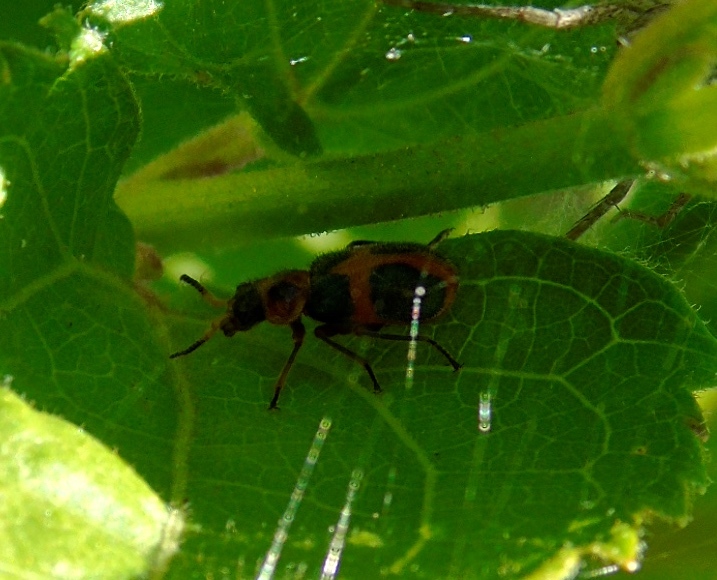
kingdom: Animalia
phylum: Arthropoda
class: Insecta
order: Coleoptera
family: Melyridae
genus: Collops
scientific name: Collops
